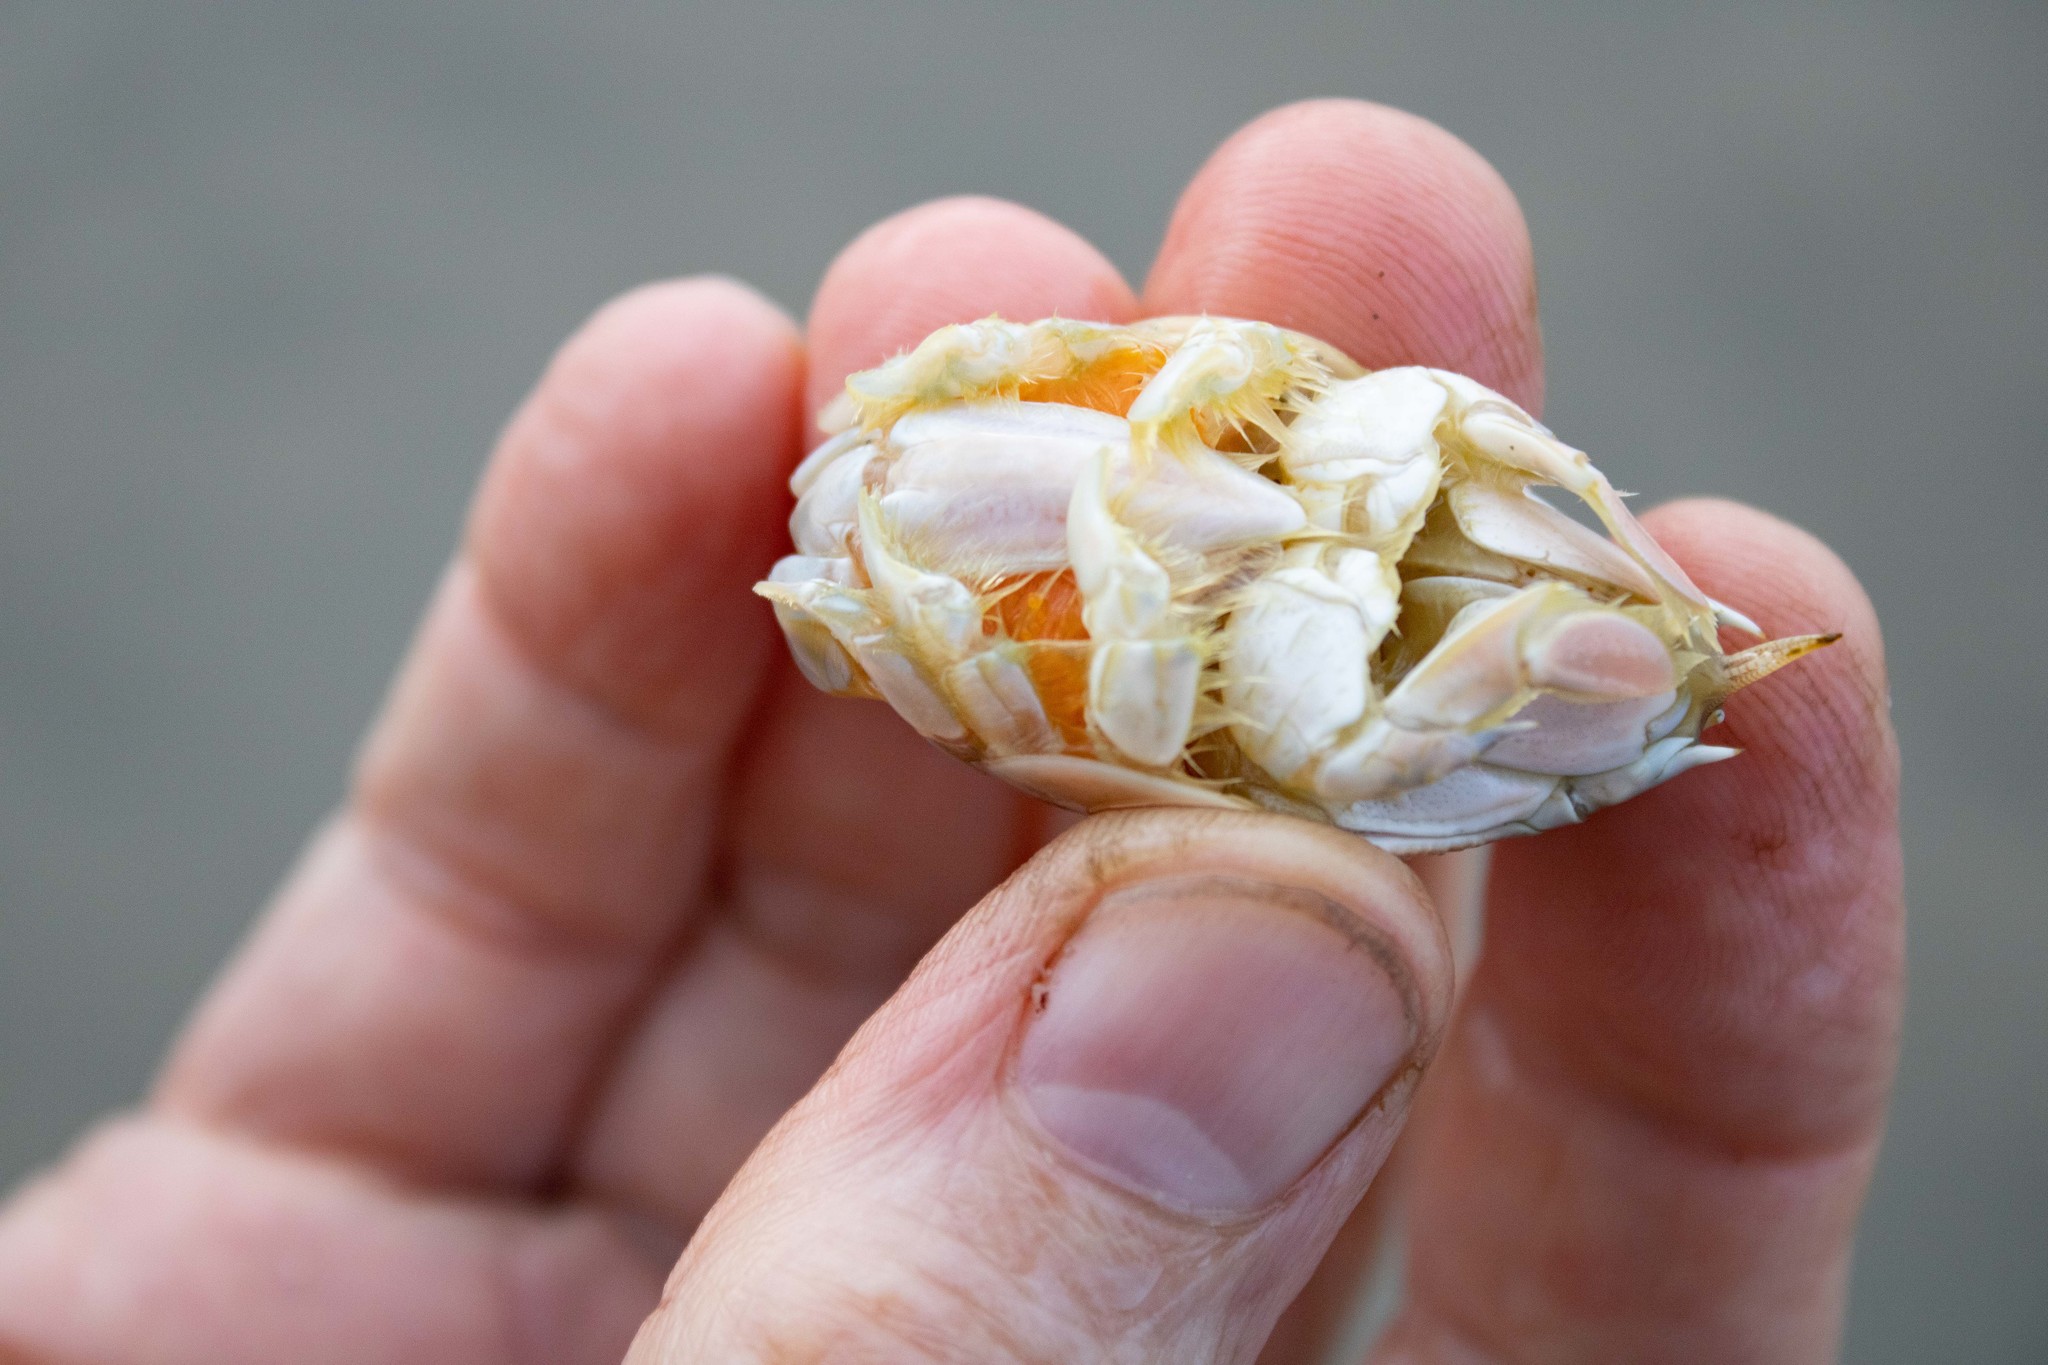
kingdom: Animalia
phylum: Arthropoda
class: Malacostraca
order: Decapoda
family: Hippidae
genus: Emerita
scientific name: Emerita analoga
